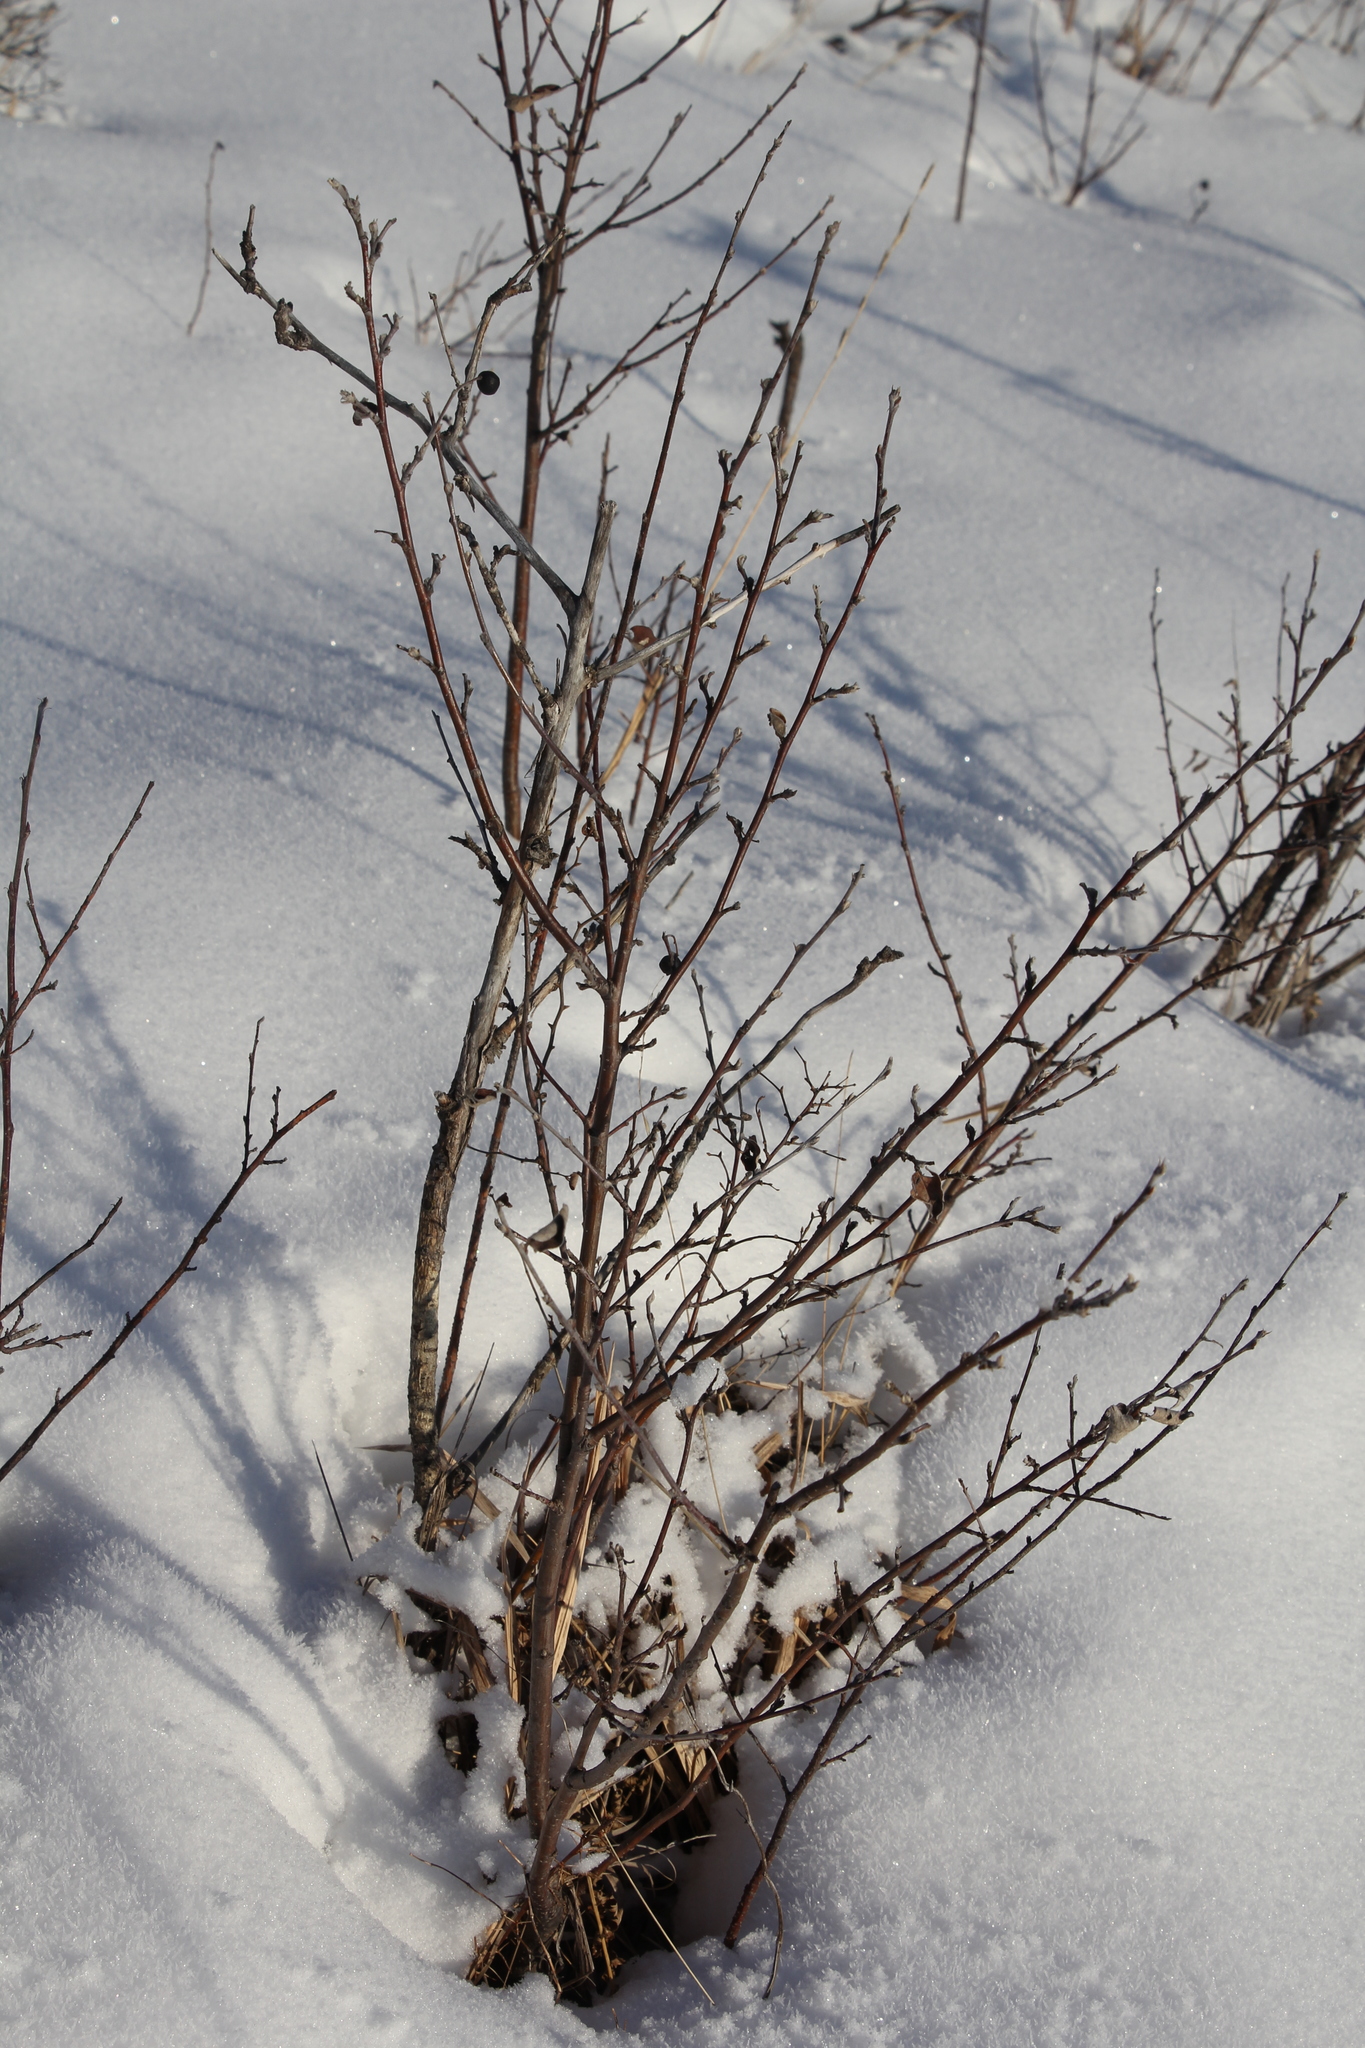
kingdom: Plantae
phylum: Tracheophyta
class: Magnoliopsida
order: Rosales
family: Rosaceae
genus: Cotoneaster
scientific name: Cotoneaster melanocarpus
